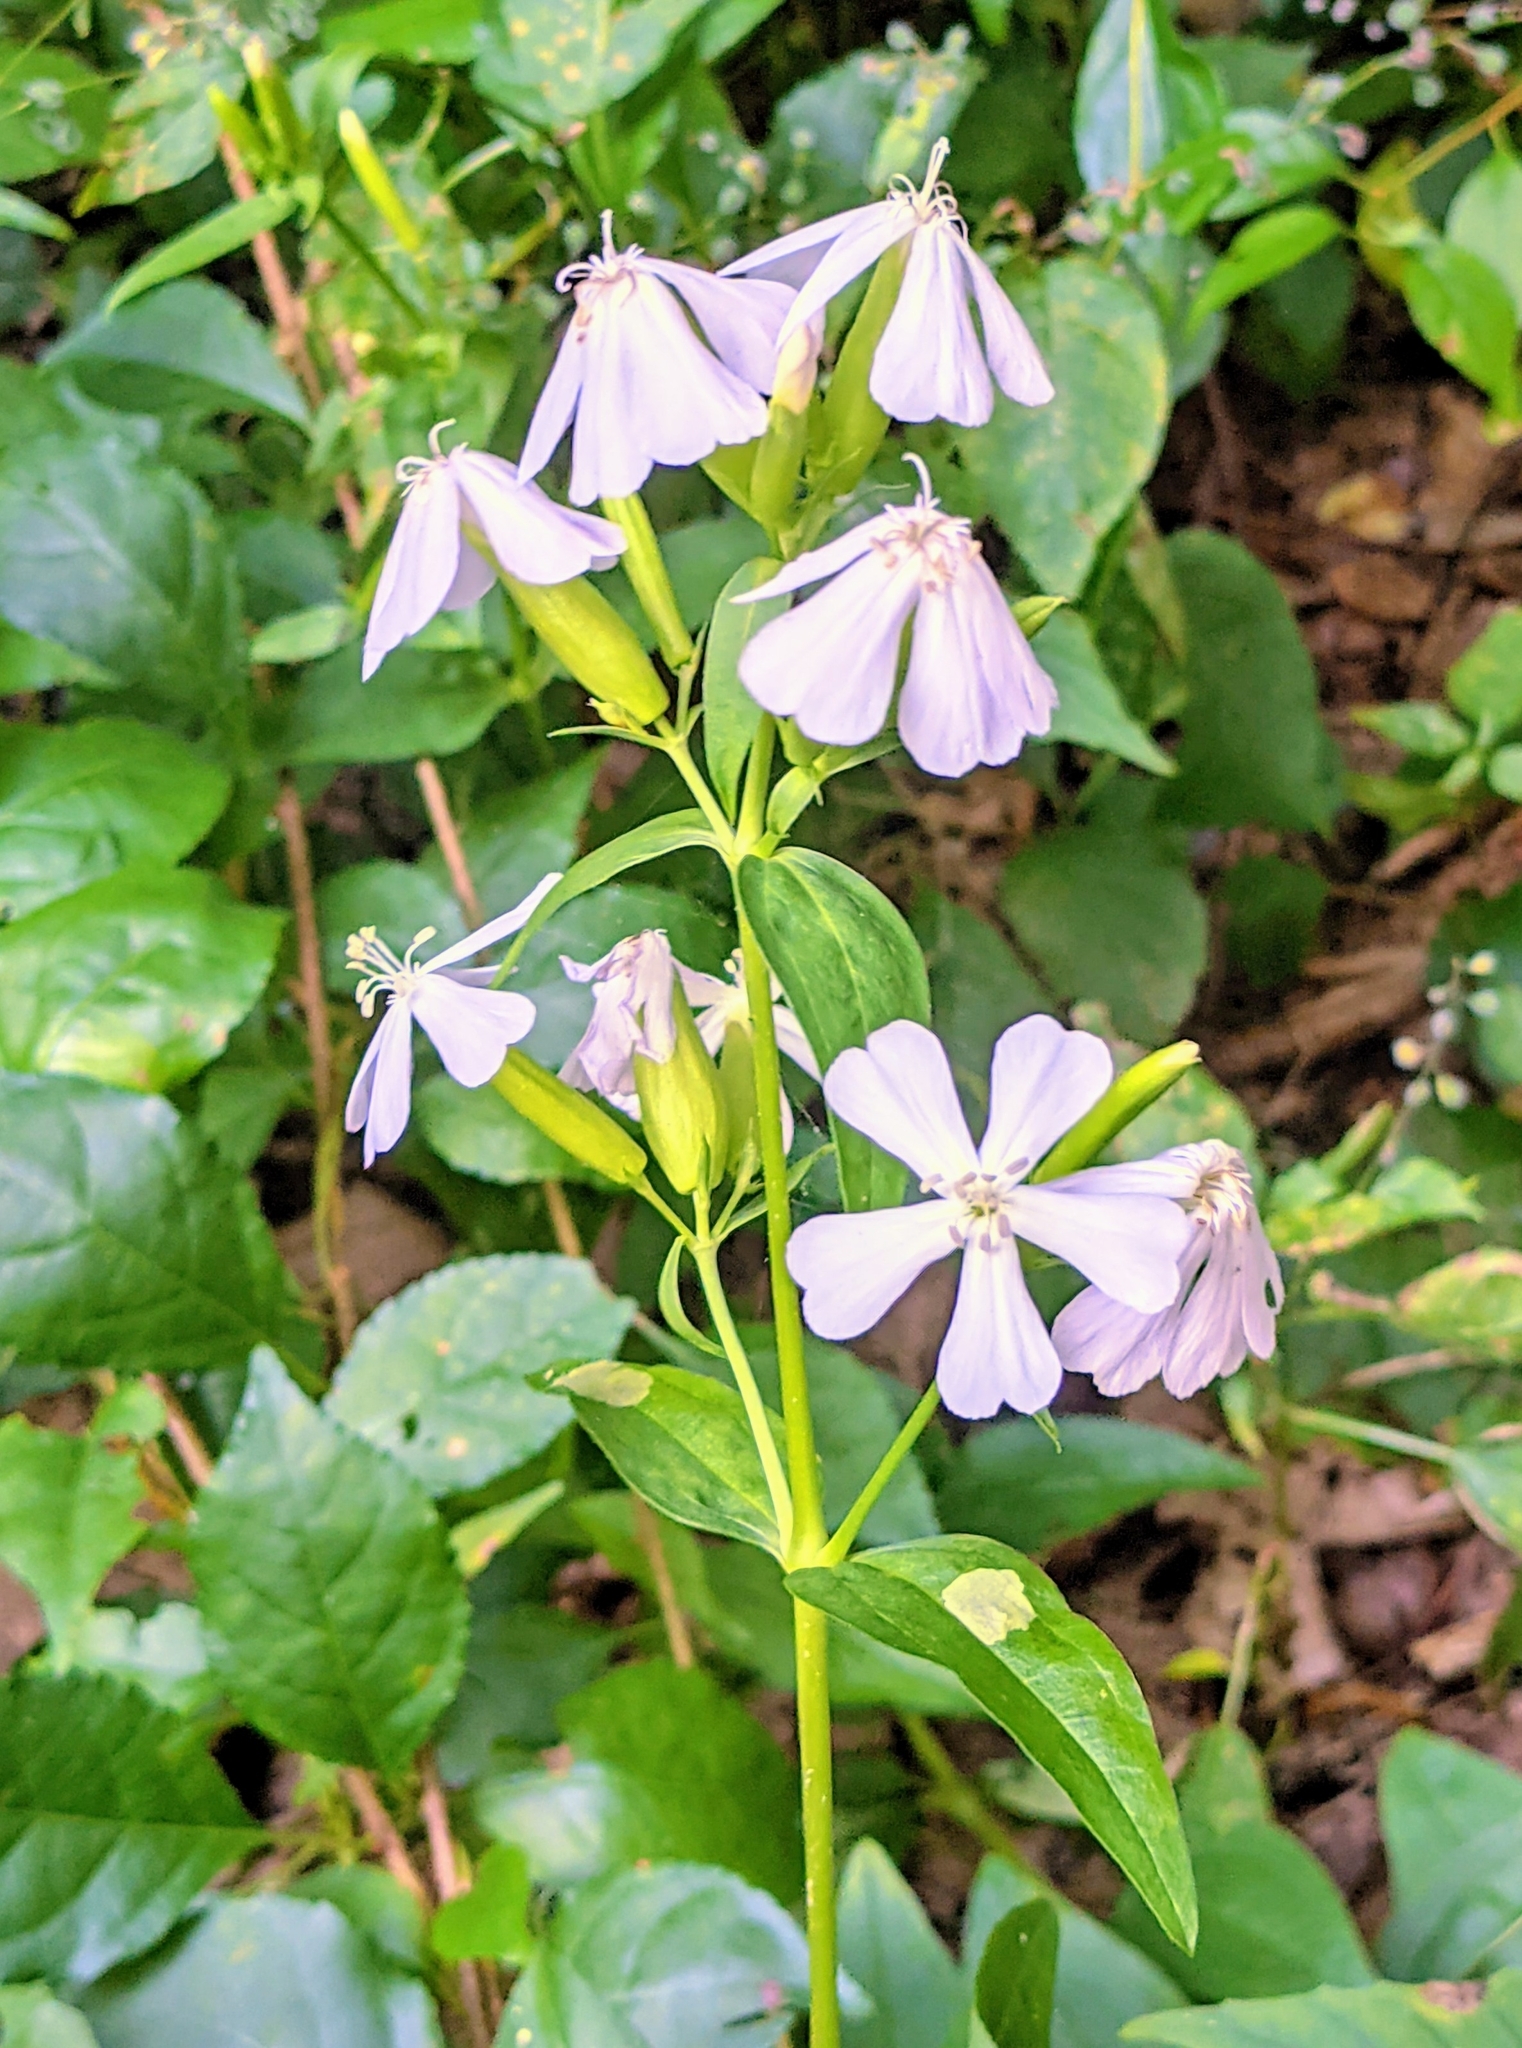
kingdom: Plantae
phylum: Tracheophyta
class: Magnoliopsida
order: Caryophyllales
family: Caryophyllaceae
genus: Saponaria
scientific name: Saponaria officinalis
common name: Soapwort
